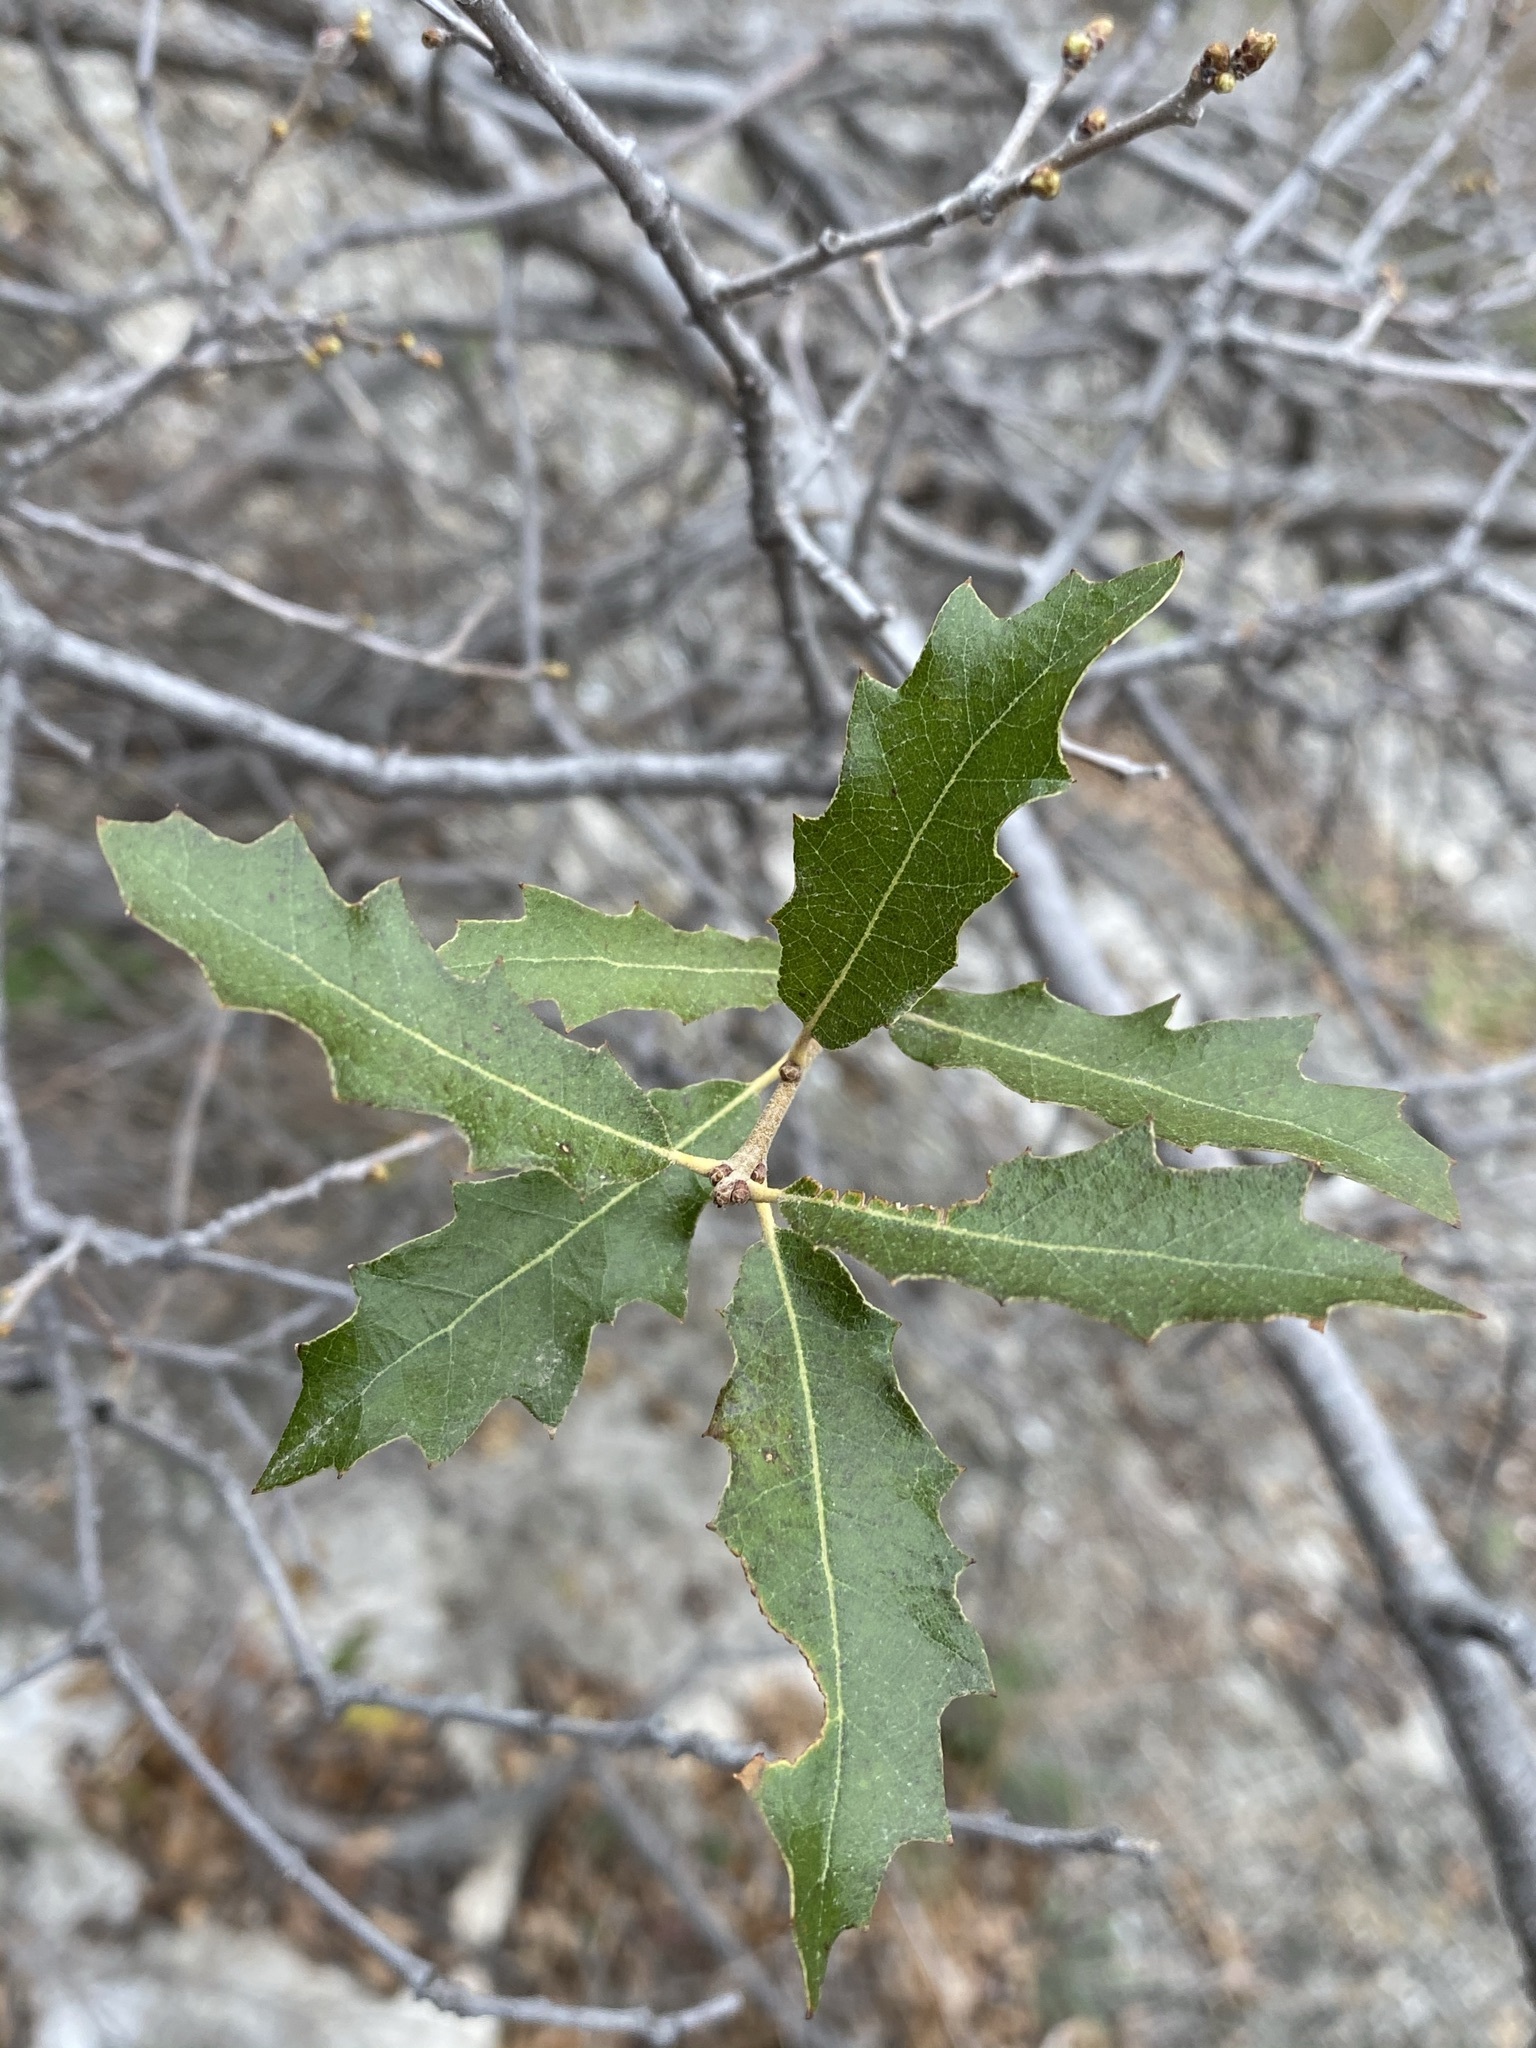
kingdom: Plantae
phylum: Tracheophyta
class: Magnoliopsida
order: Fagales
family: Fagaceae
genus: Quercus
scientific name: Quercus vaseyana
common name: Sandpaper oak
